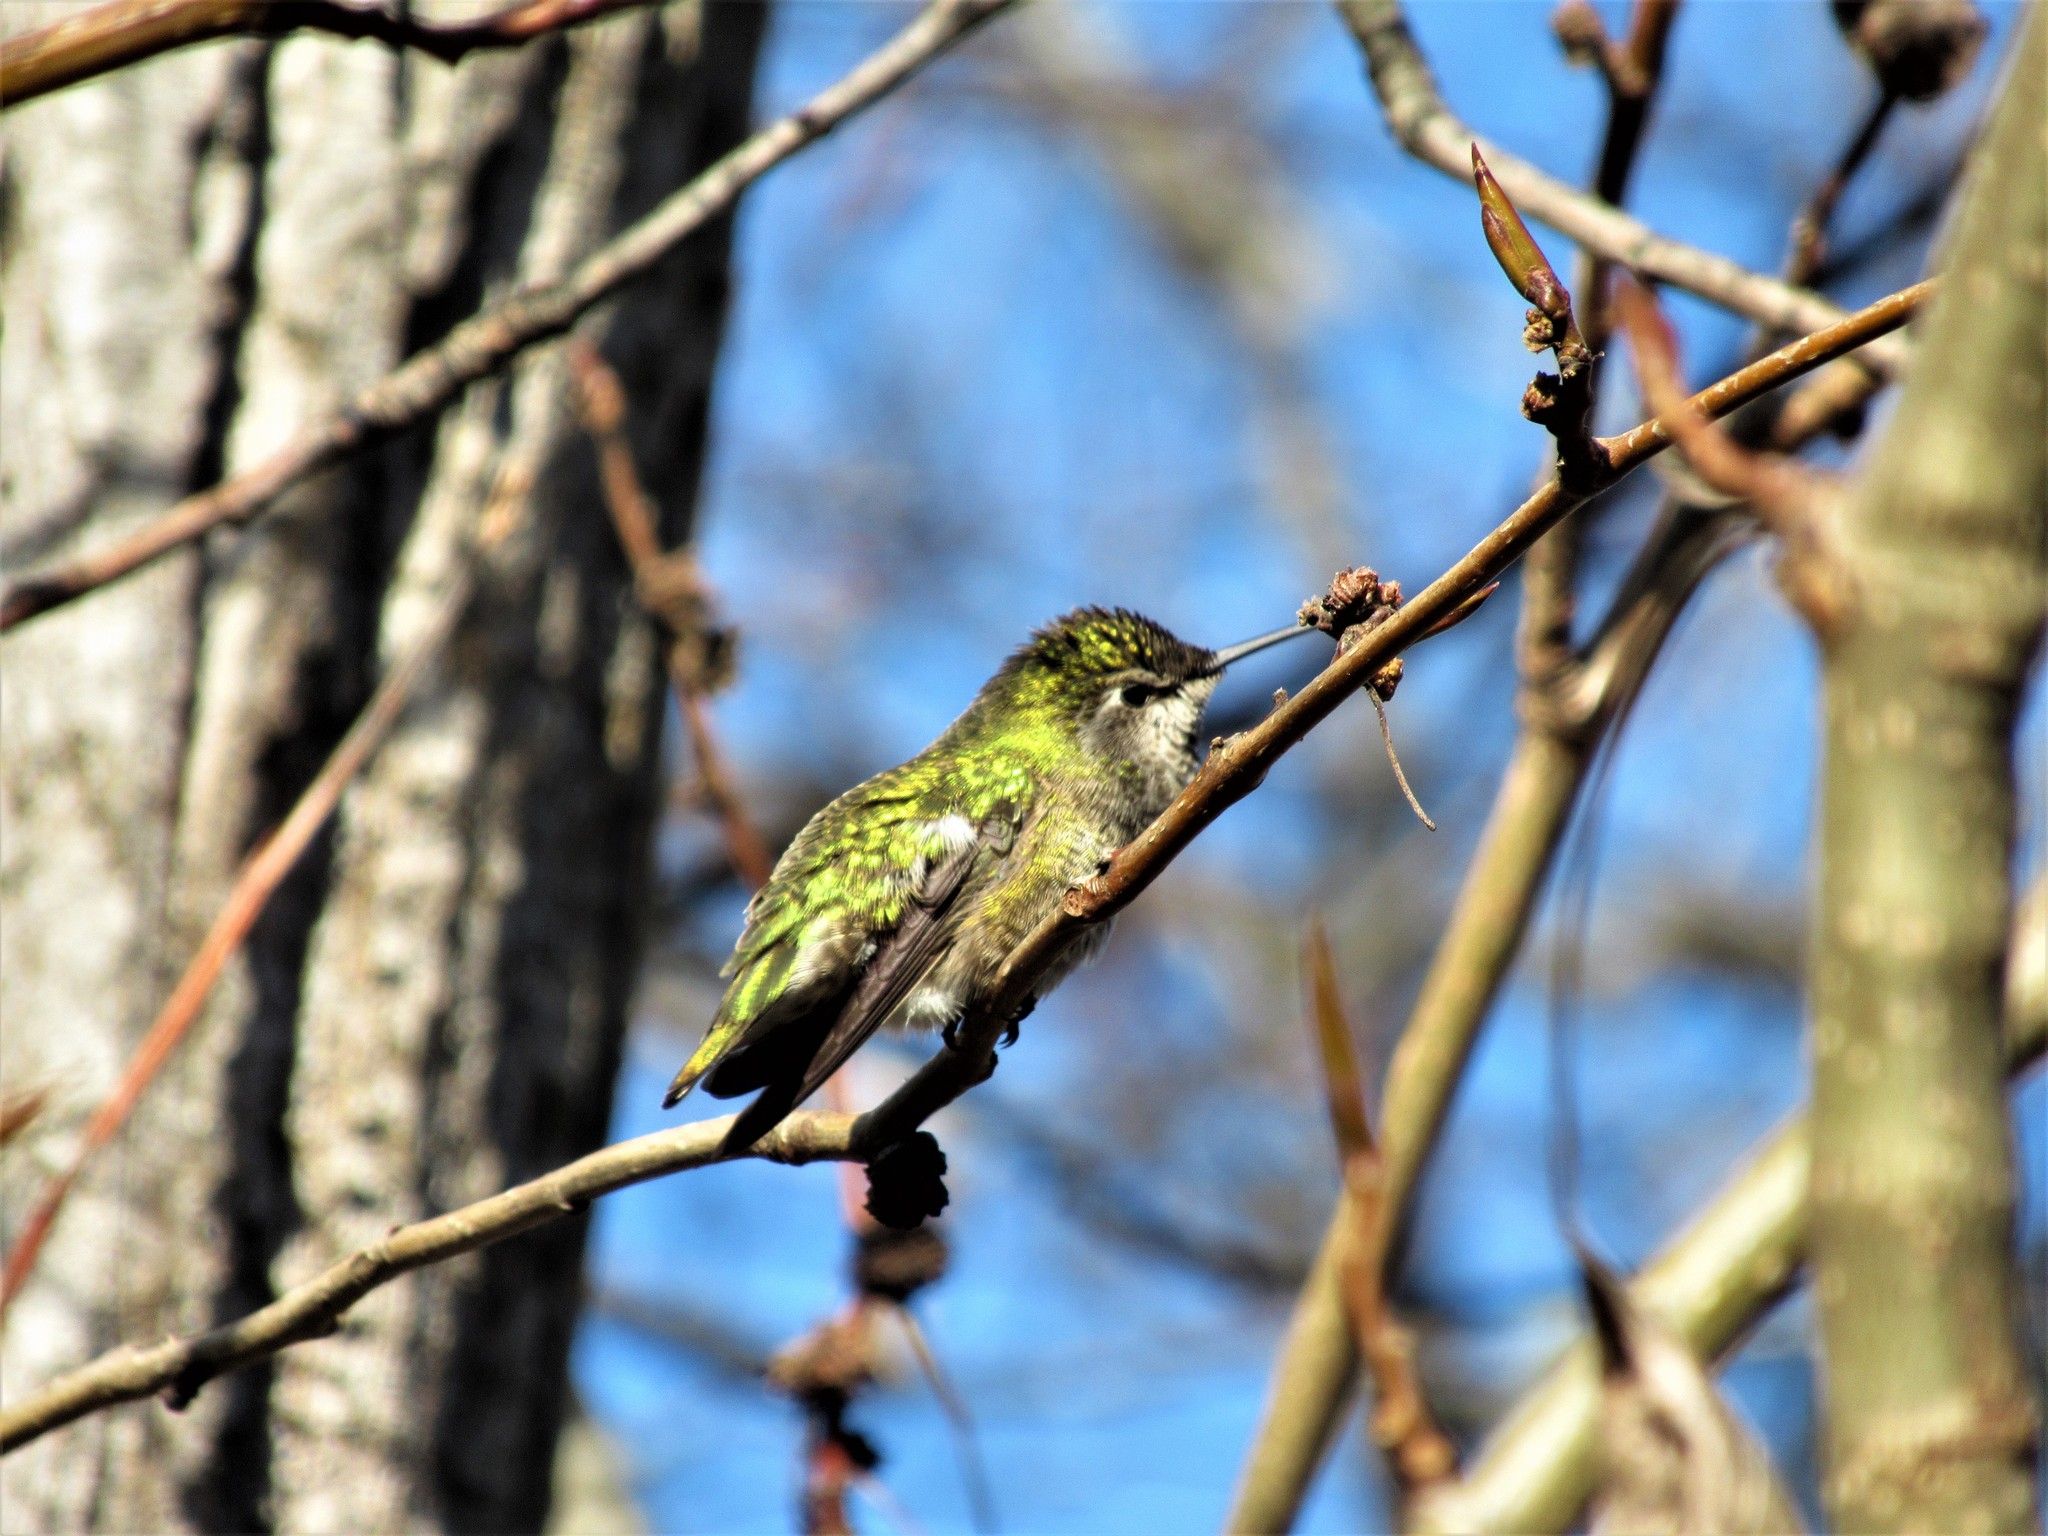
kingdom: Animalia
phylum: Chordata
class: Aves
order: Apodiformes
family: Trochilidae
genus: Calypte
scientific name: Calypte anna
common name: Anna's hummingbird
